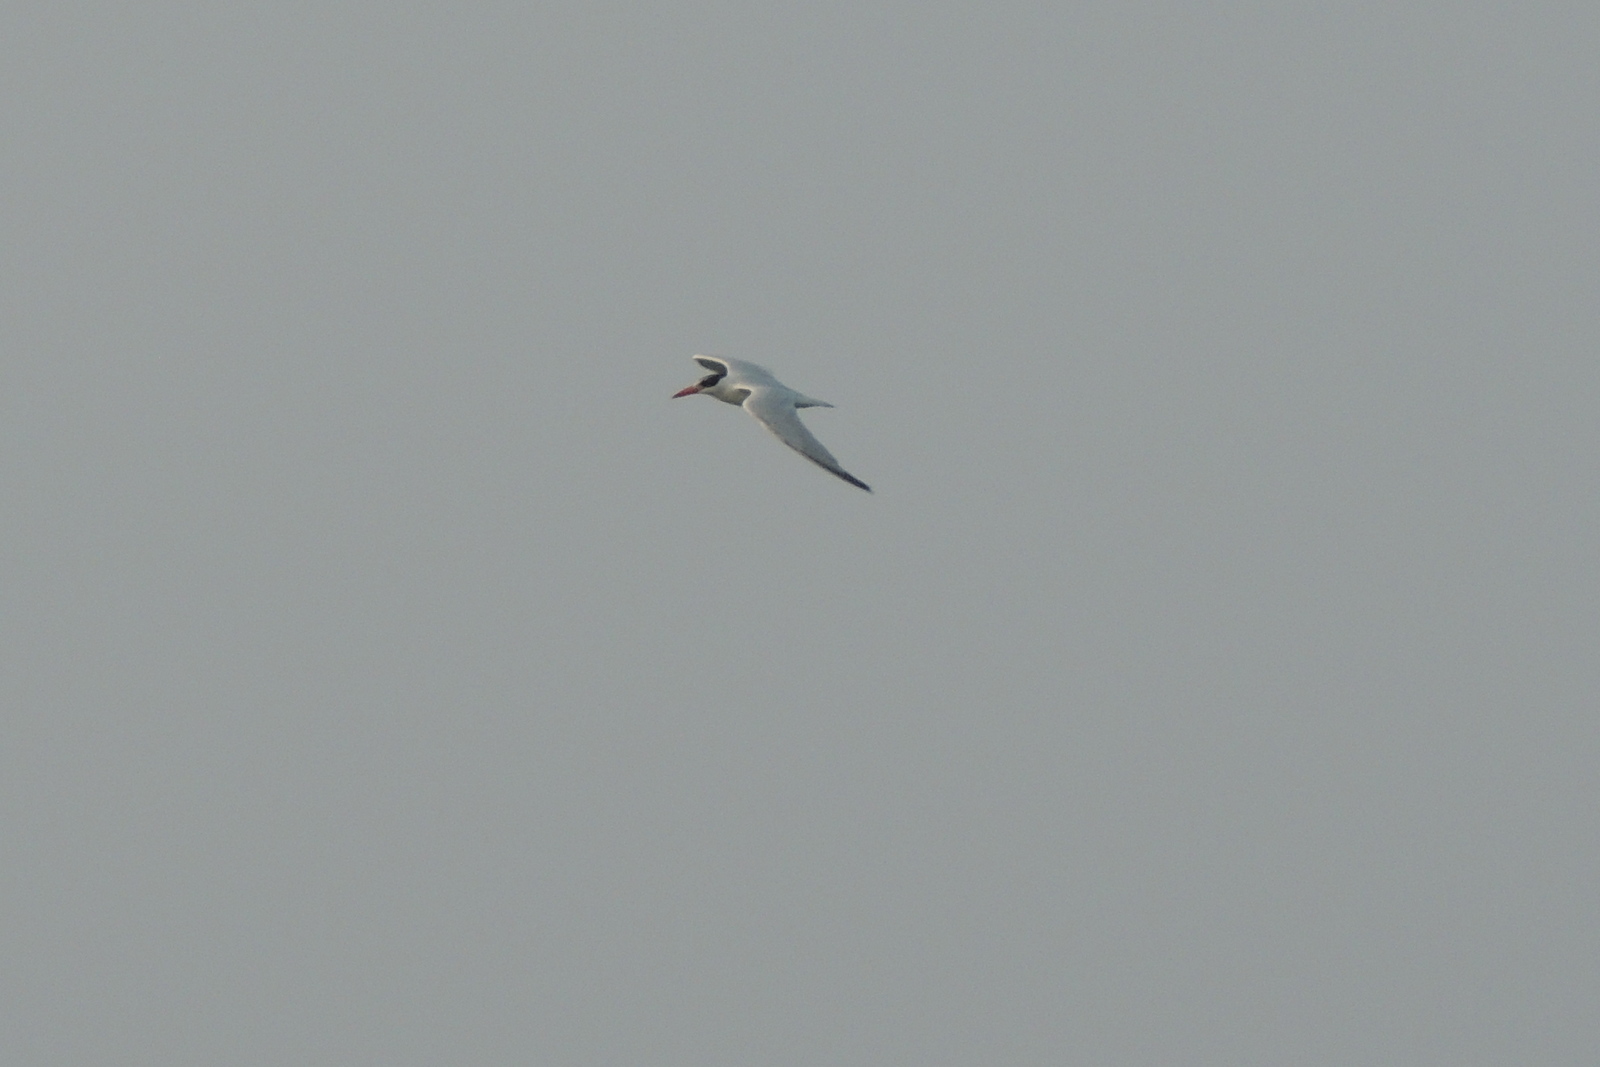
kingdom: Animalia
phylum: Chordata
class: Aves
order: Charadriiformes
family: Laridae
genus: Hydroprogne
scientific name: Hydroprogne caspia
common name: Caspian tern
